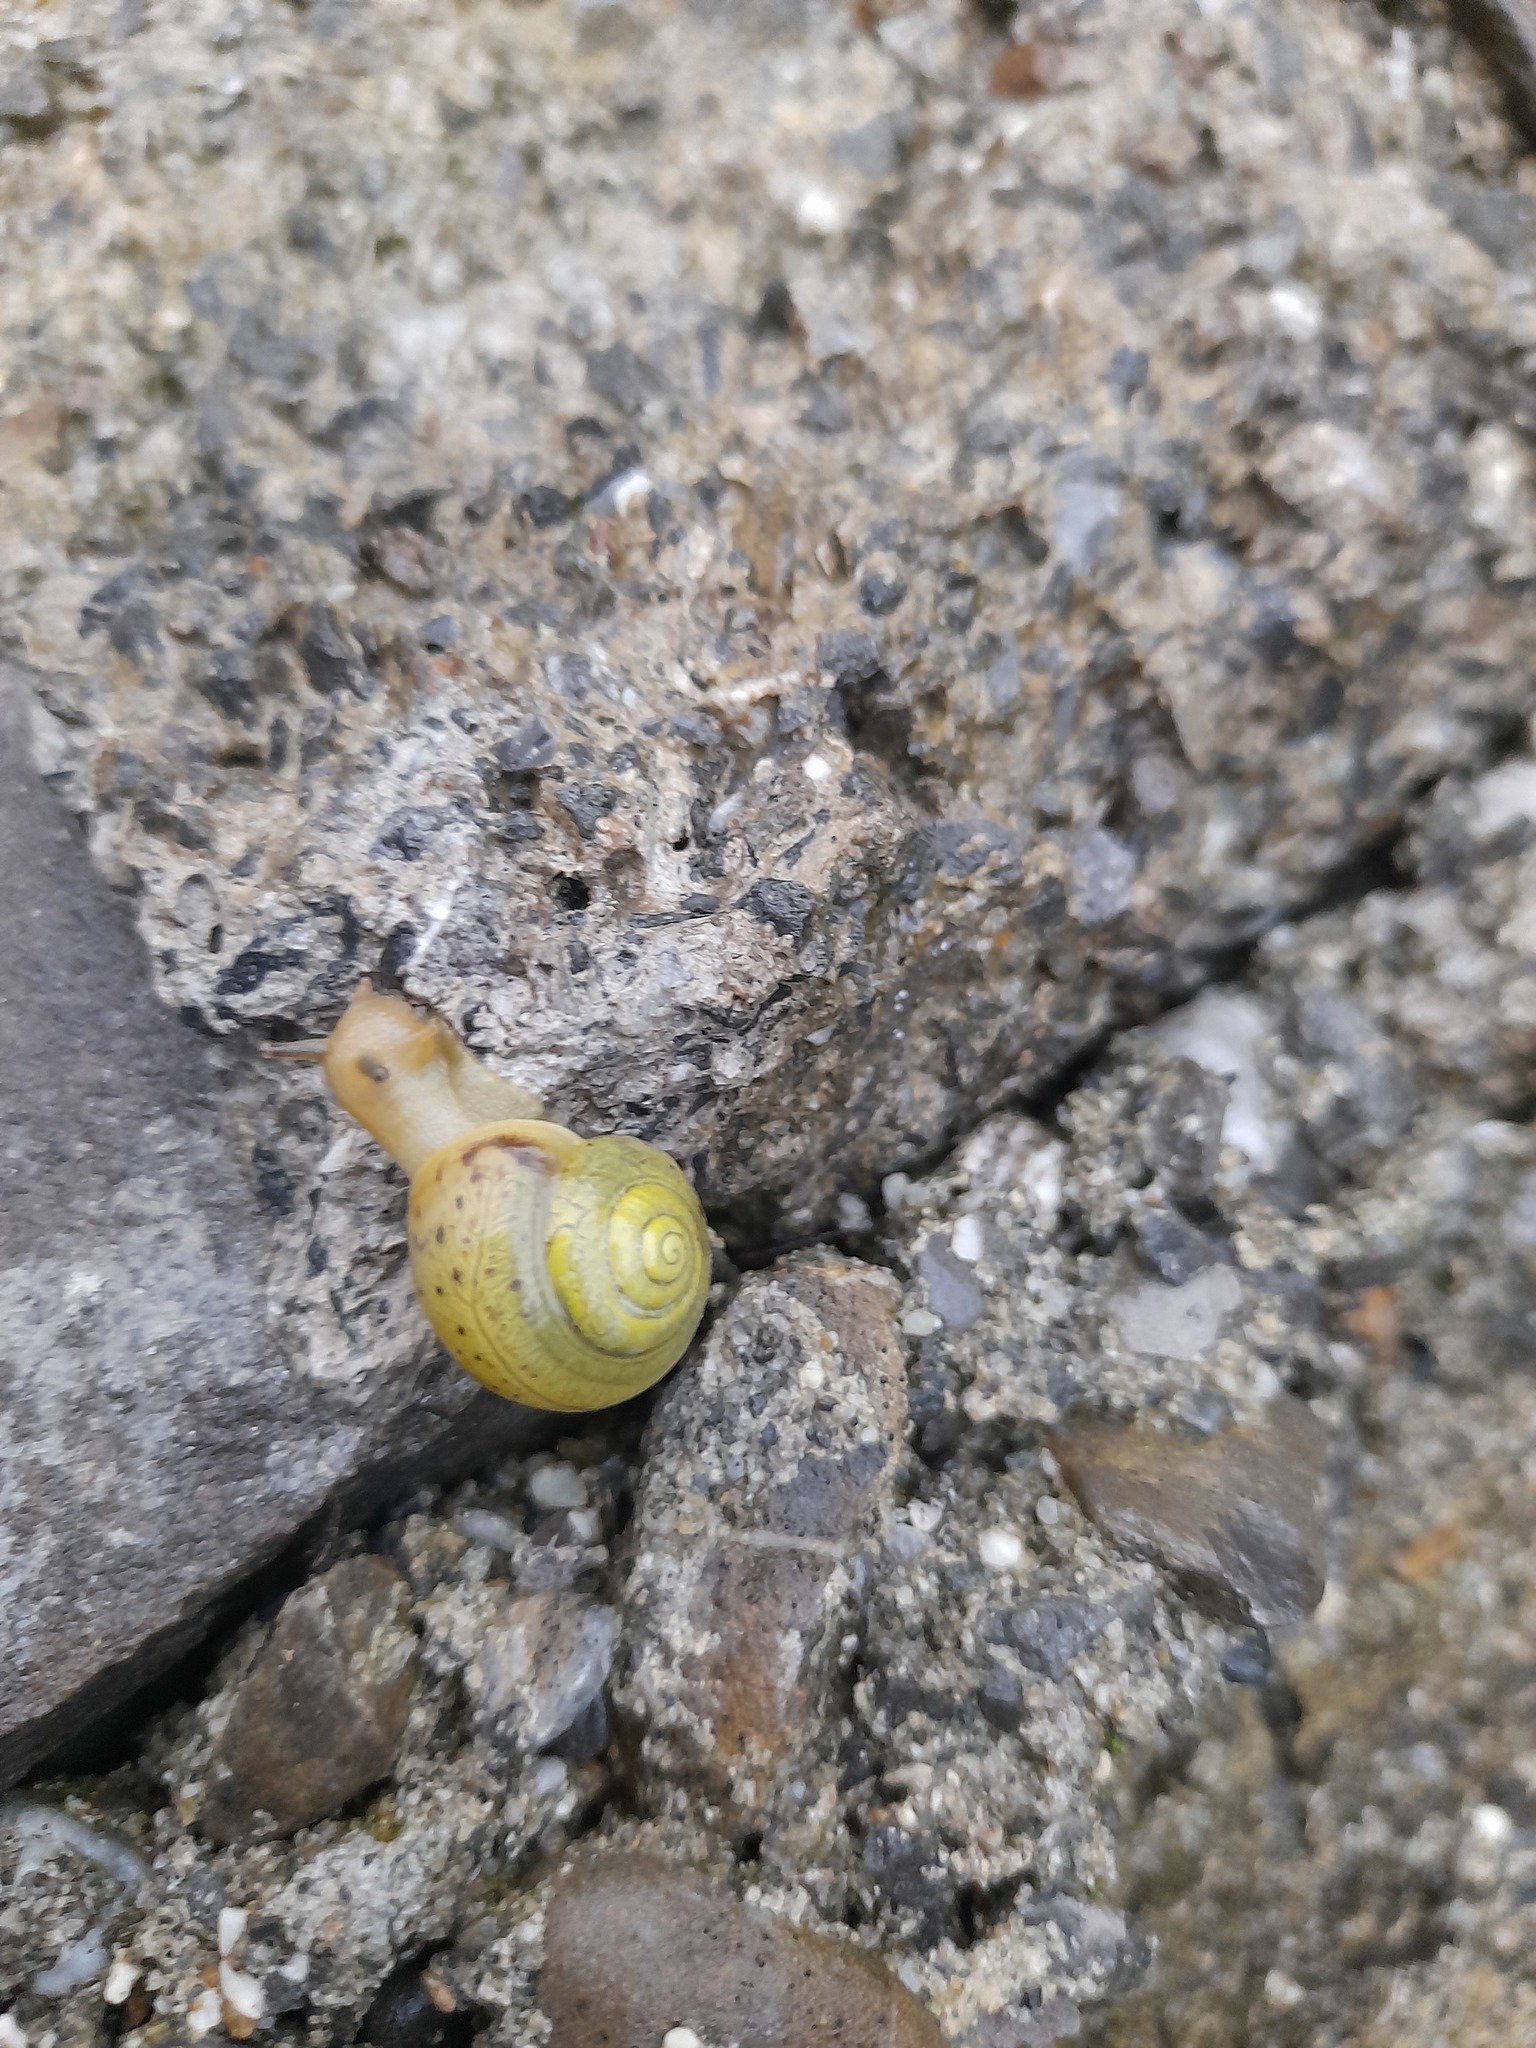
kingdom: Animalia
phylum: Mollusca
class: Gastropoda
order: Stylommatophora
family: Camaenidae
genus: Fruticicola
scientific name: Fruticicola fruticum
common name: Bush snail
